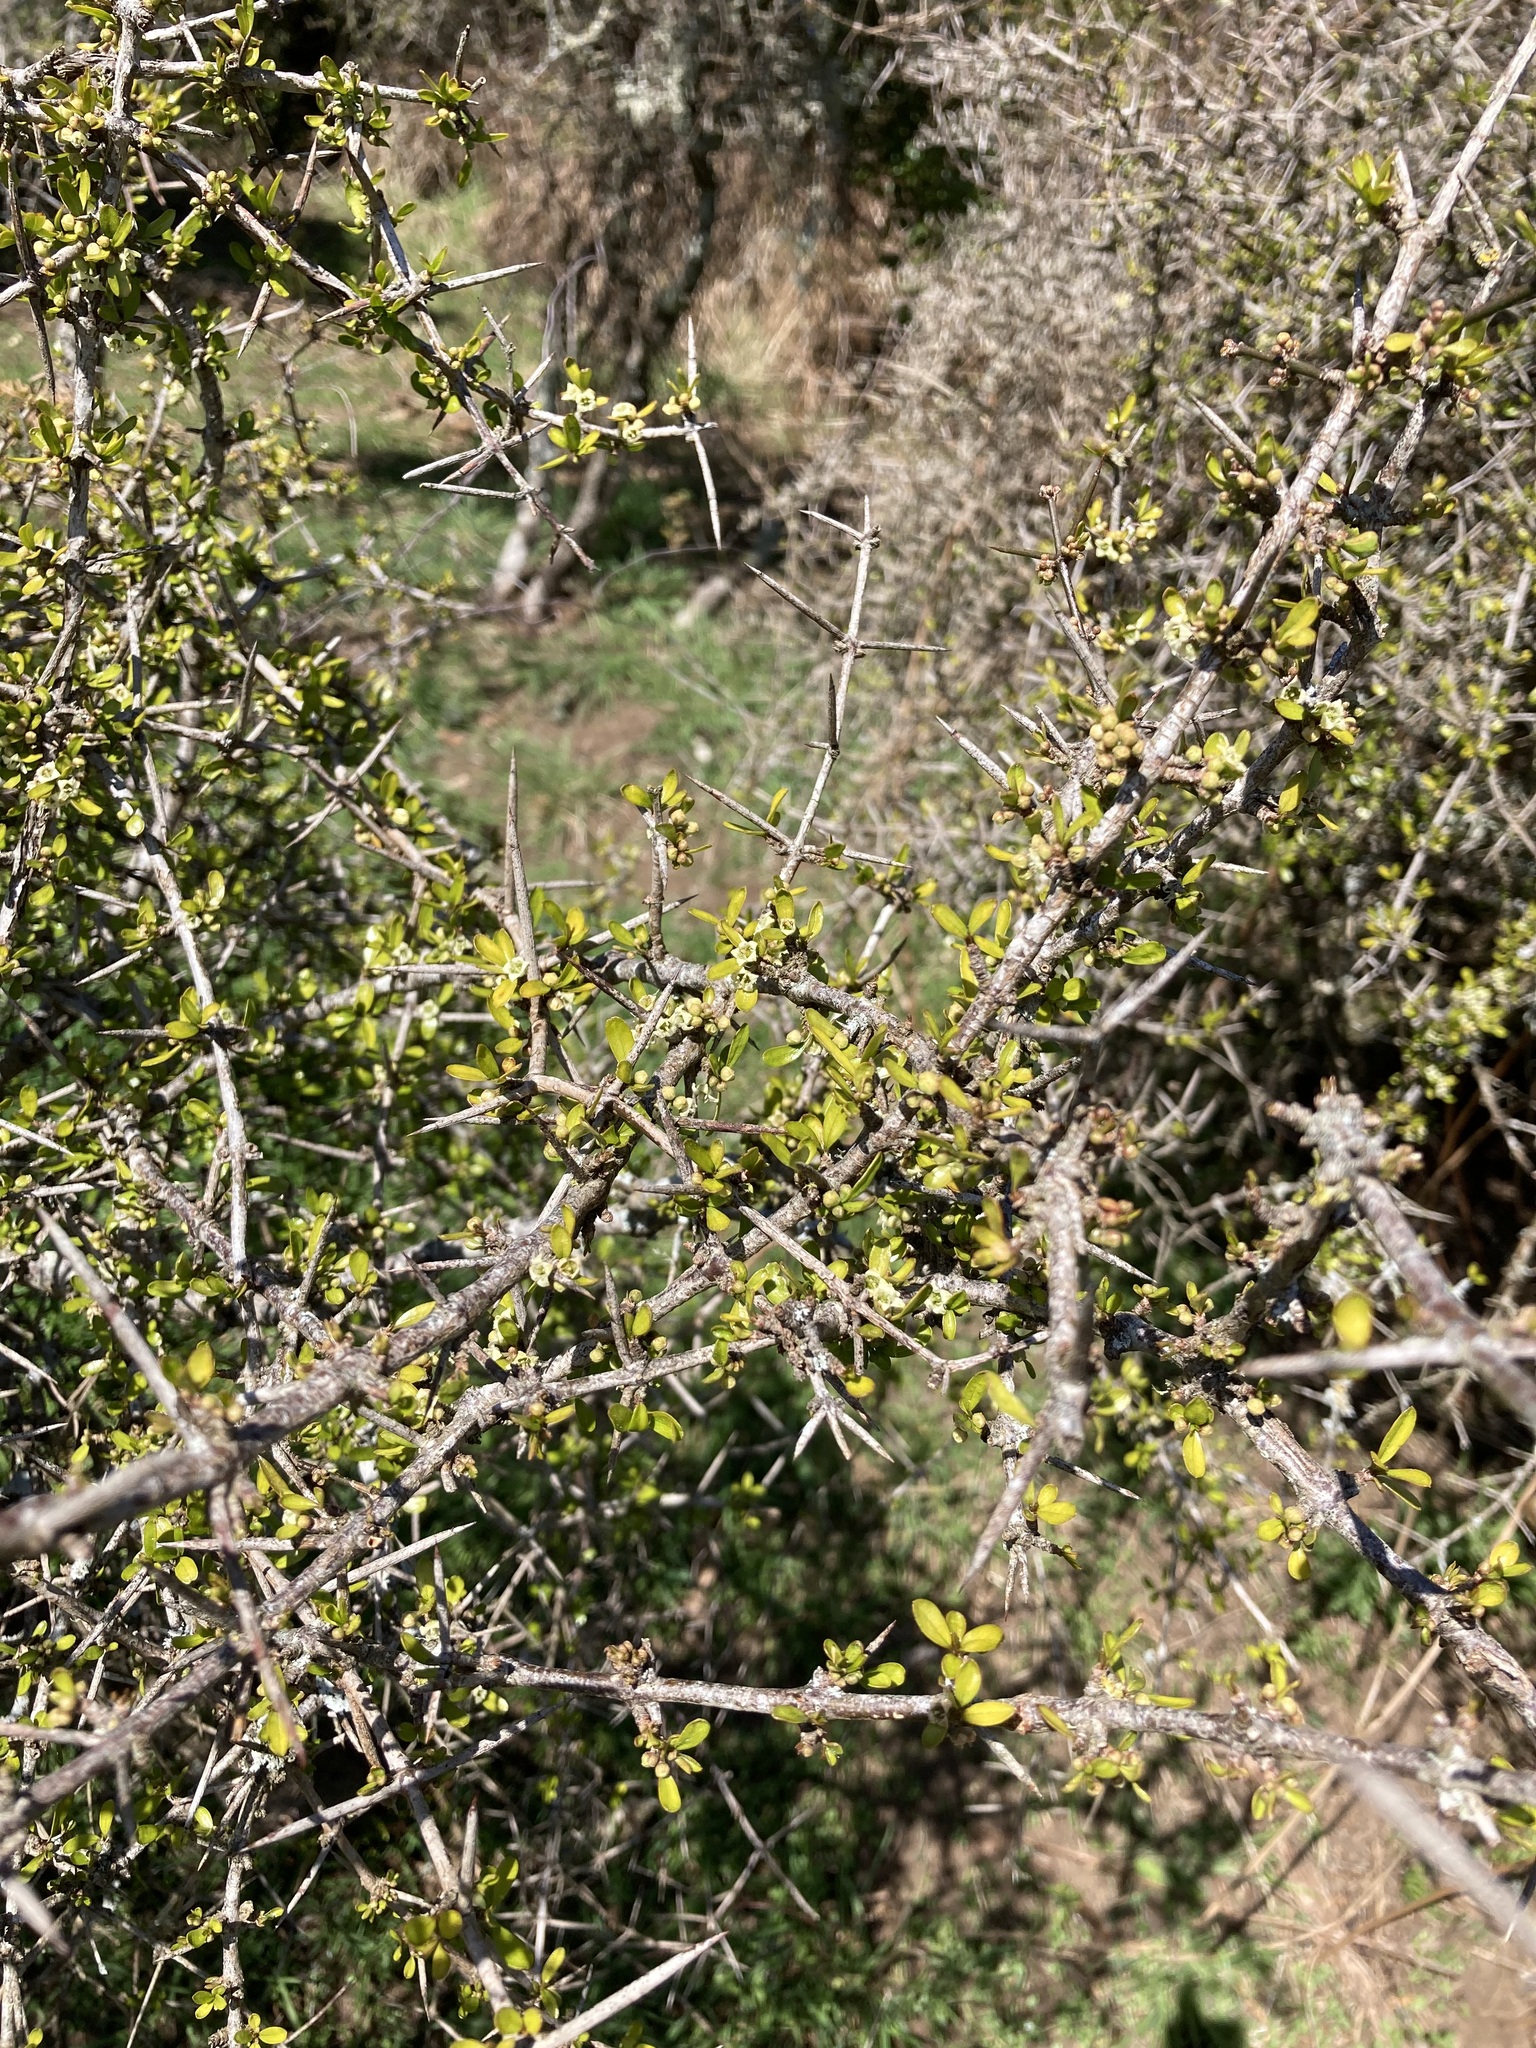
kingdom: Plantae
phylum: Tracheophyta
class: Magnoliopsida
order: Rosales
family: Rhamnaceae
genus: Discaria
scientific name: Discaria toumatou
